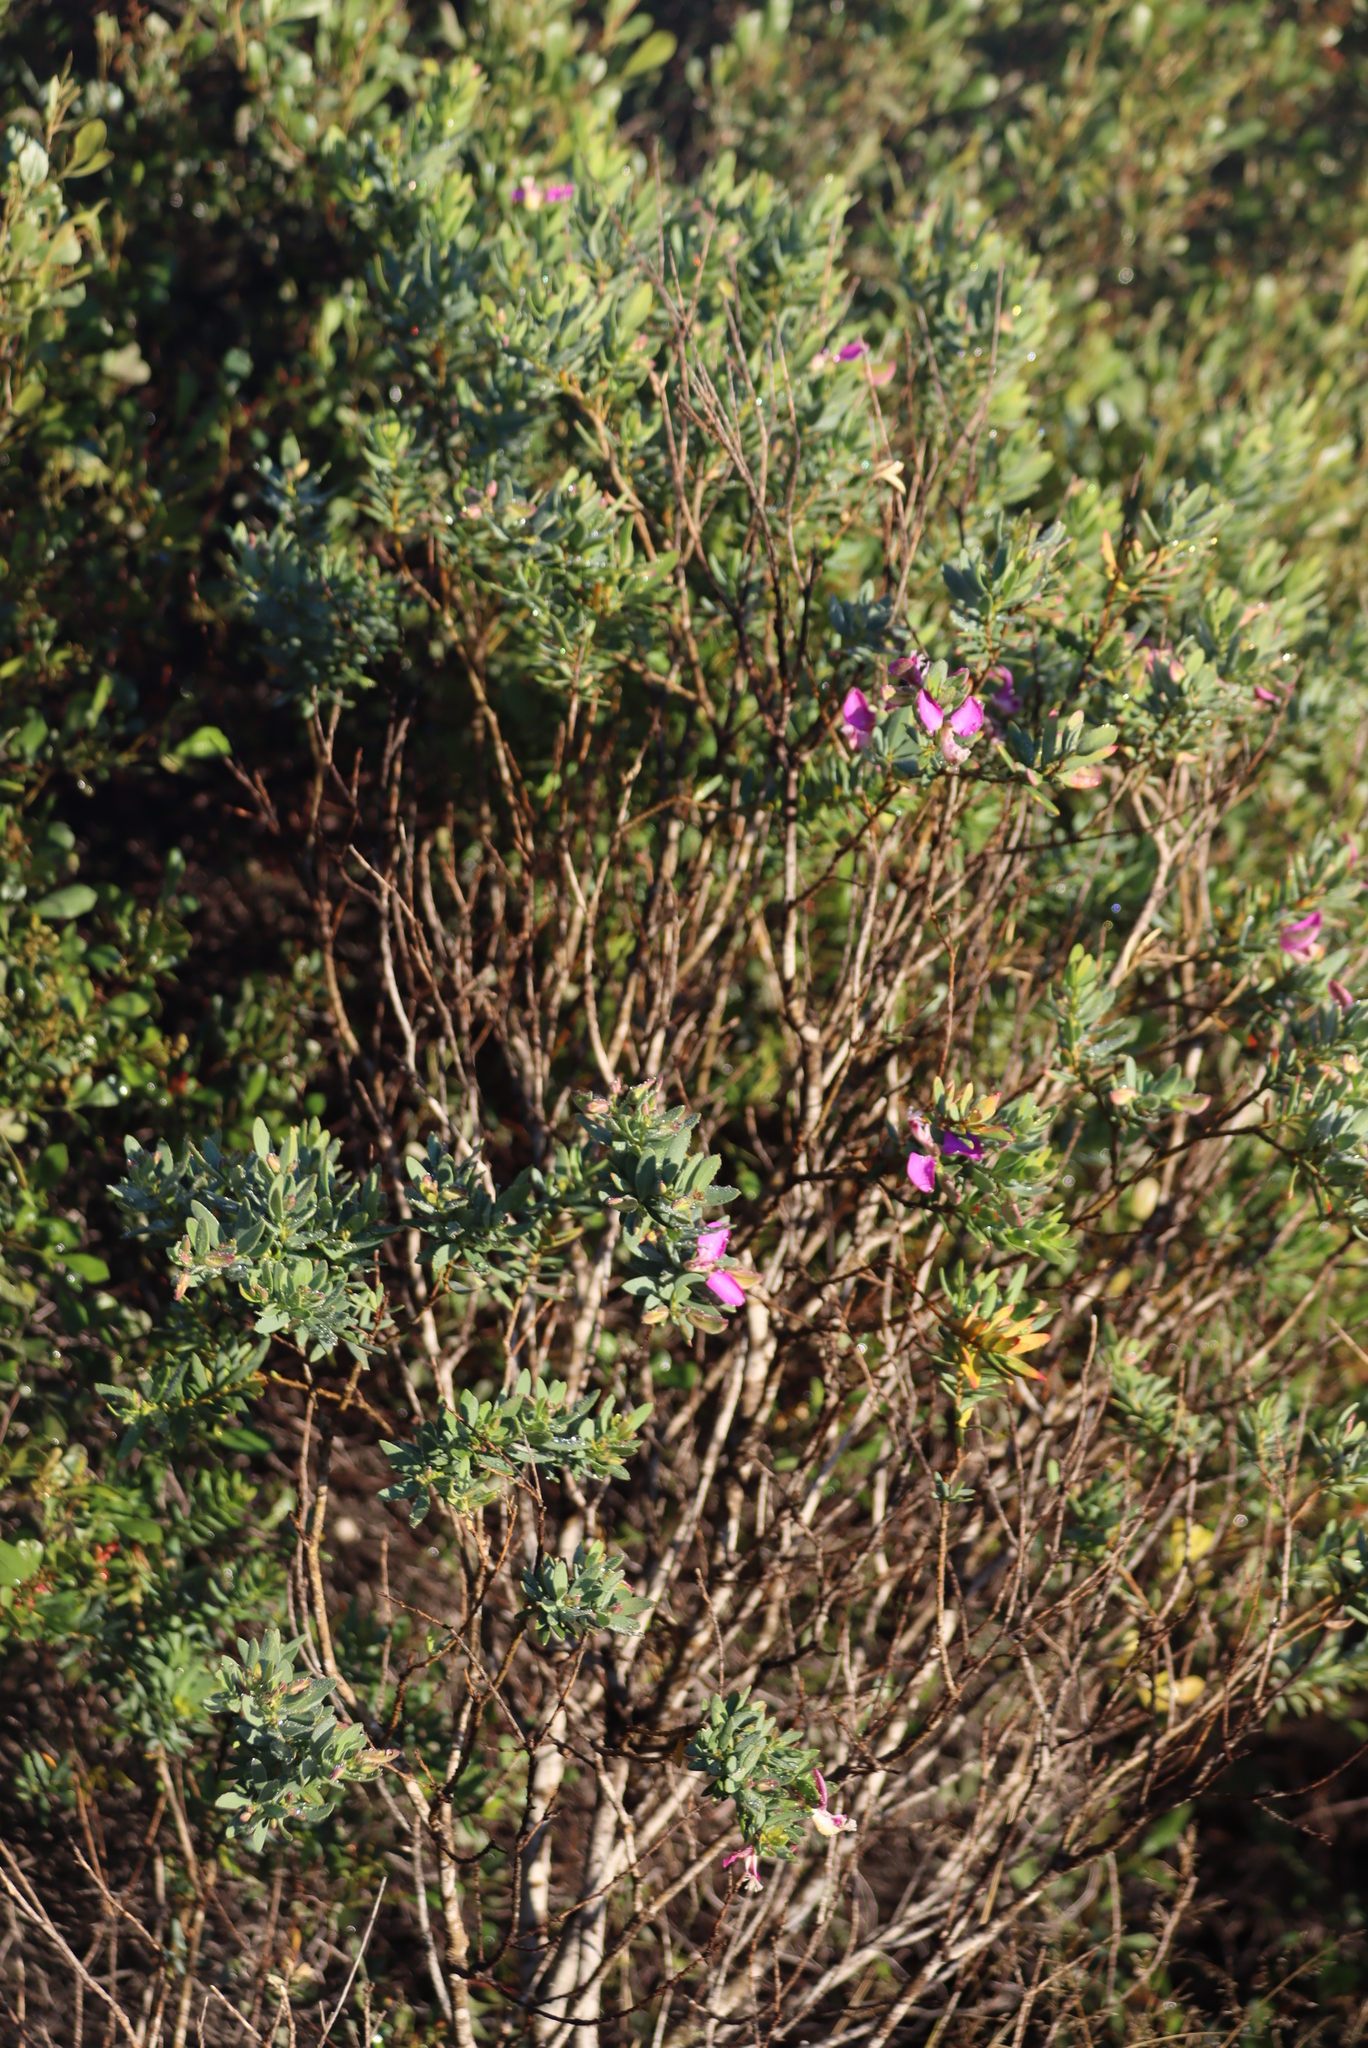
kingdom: Plantae
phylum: Tracheophyta
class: Magnoliopsida
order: Fabales
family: Polygalaceae
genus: Polygala
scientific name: Polygala myrtifolia
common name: Myrtle-leaf milkwort
